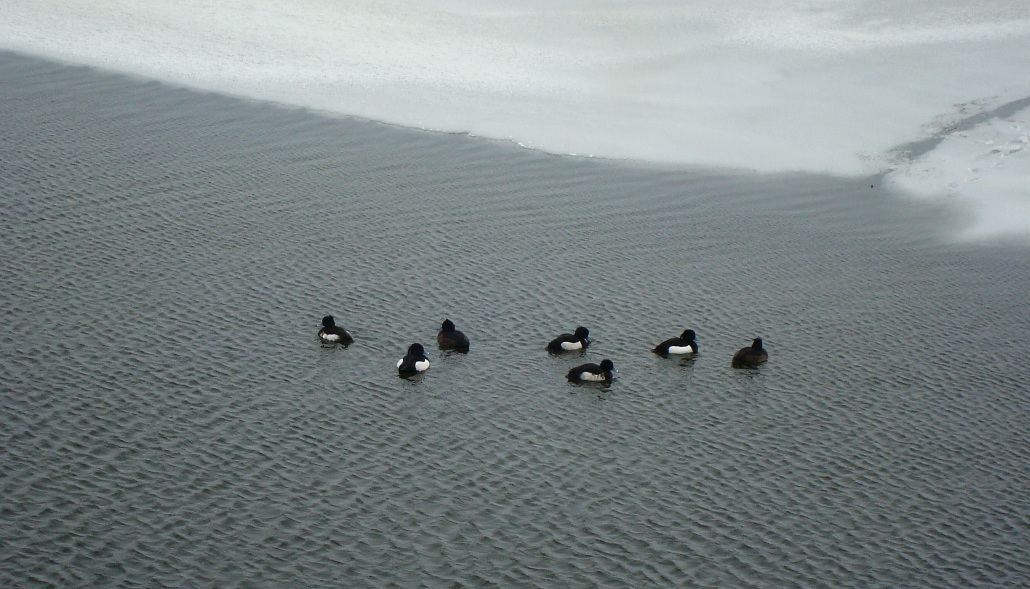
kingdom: Animalia
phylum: Chordata
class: Aves
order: Anseriformes
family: Anatidae
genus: Aythya
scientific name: Aythya fuligula
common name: Tufted duck
